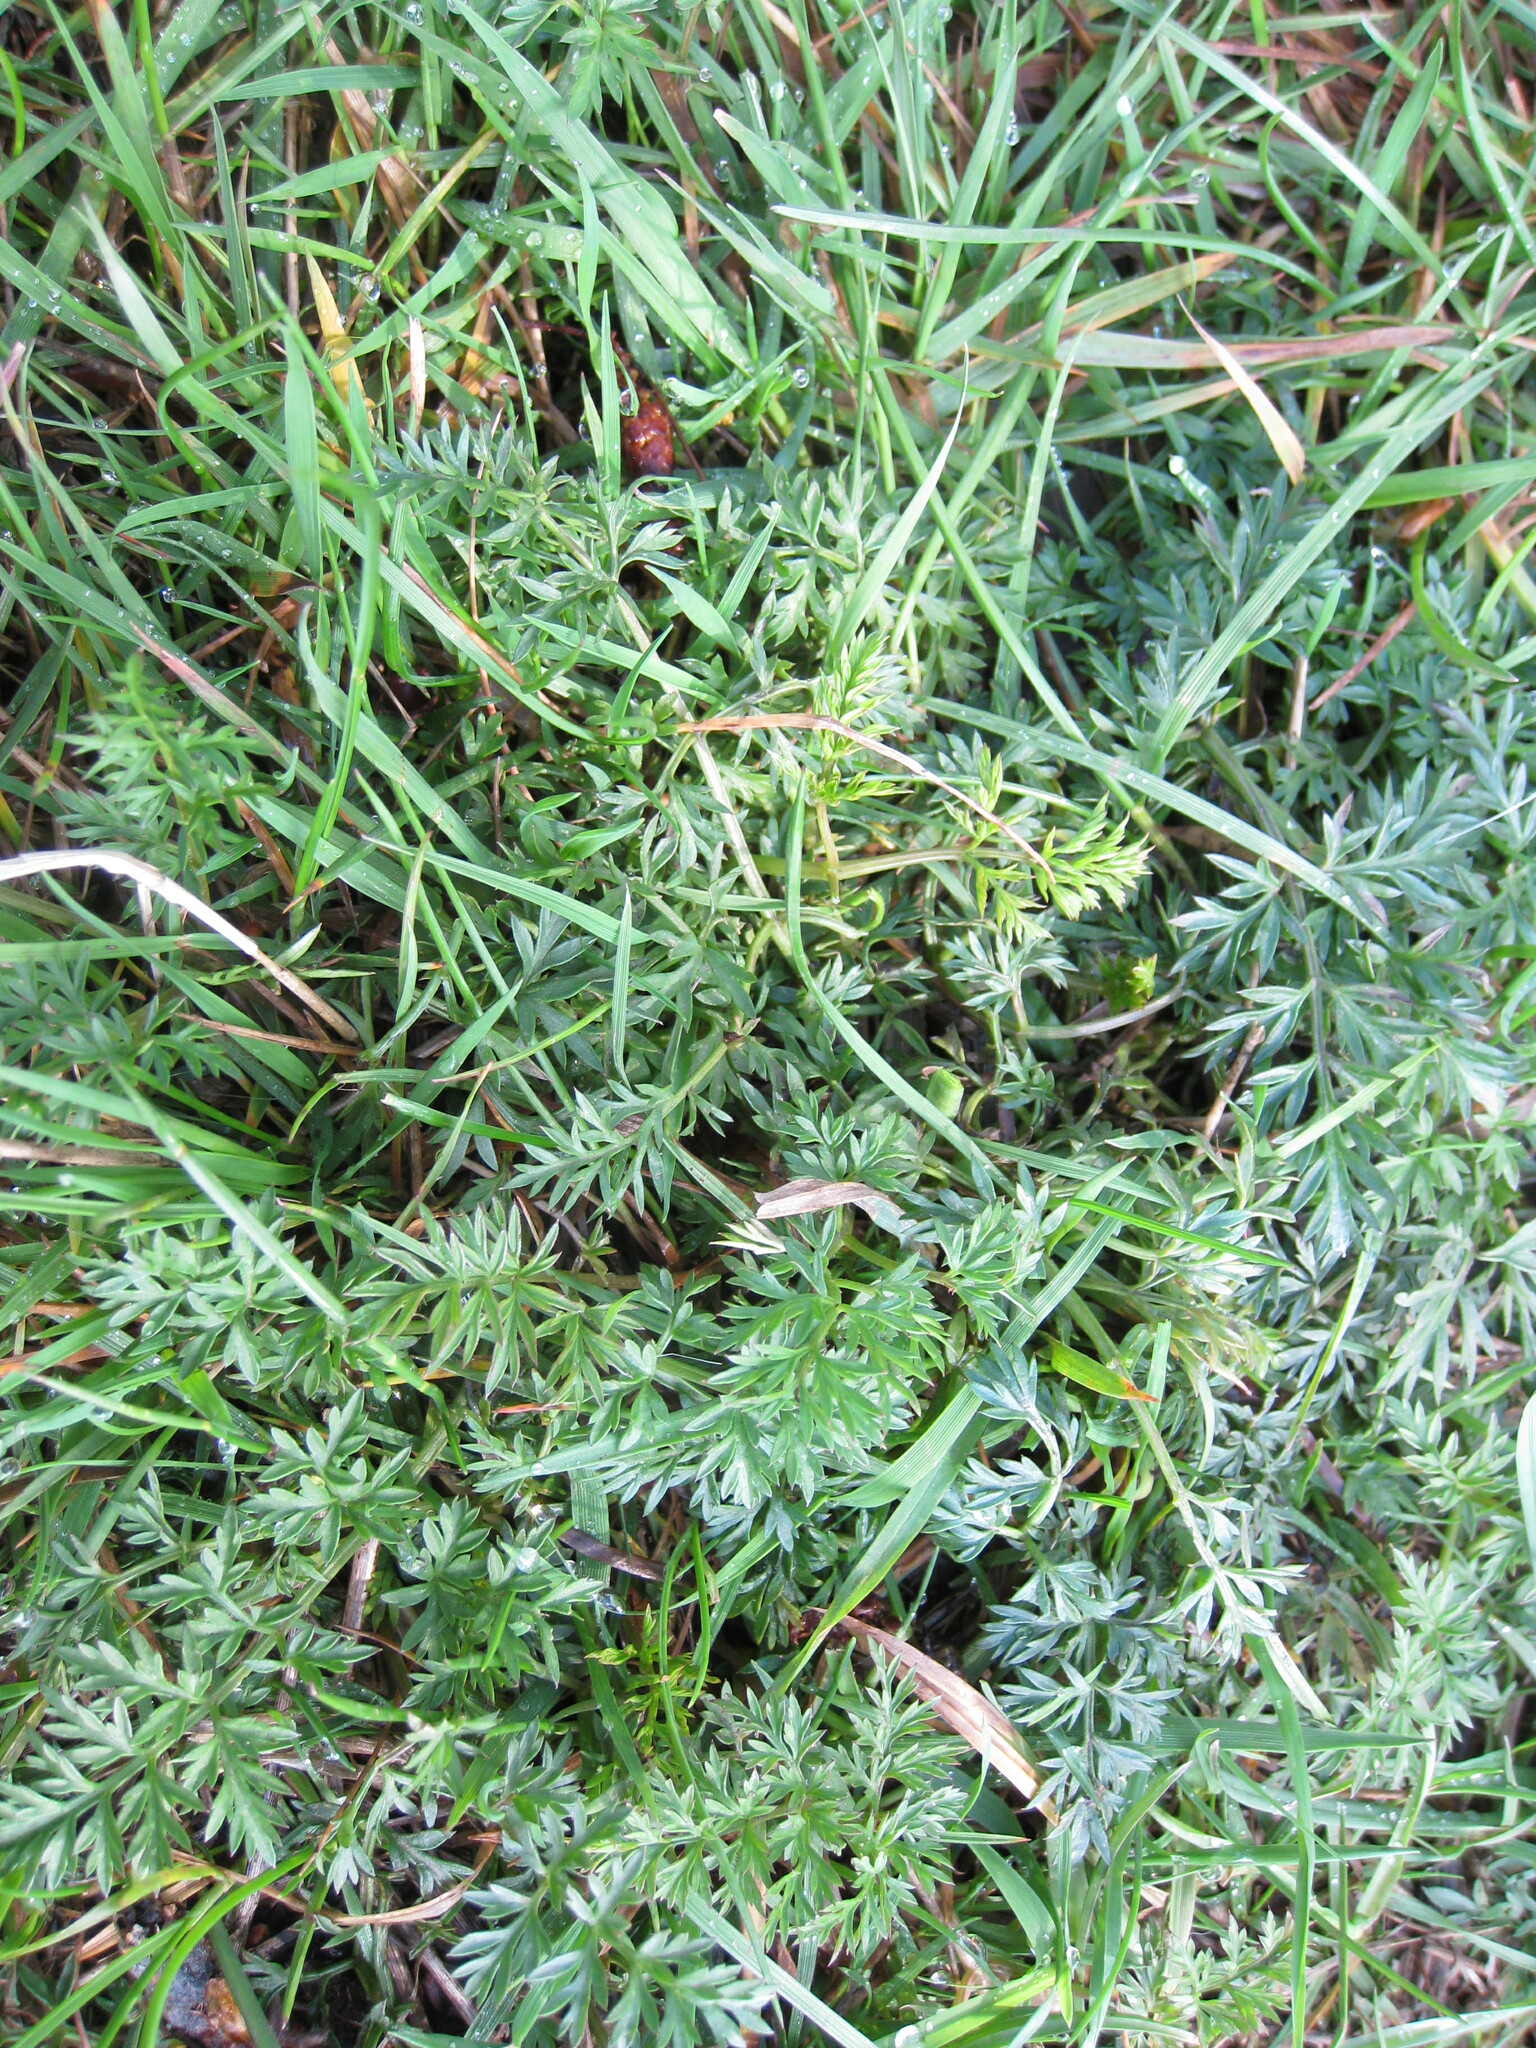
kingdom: Plantae
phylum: Tracheophyta
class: Magnoliopsida
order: Apiales
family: Apiaceae
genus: Conopodium
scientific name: Conopodium majus
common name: Pignut
